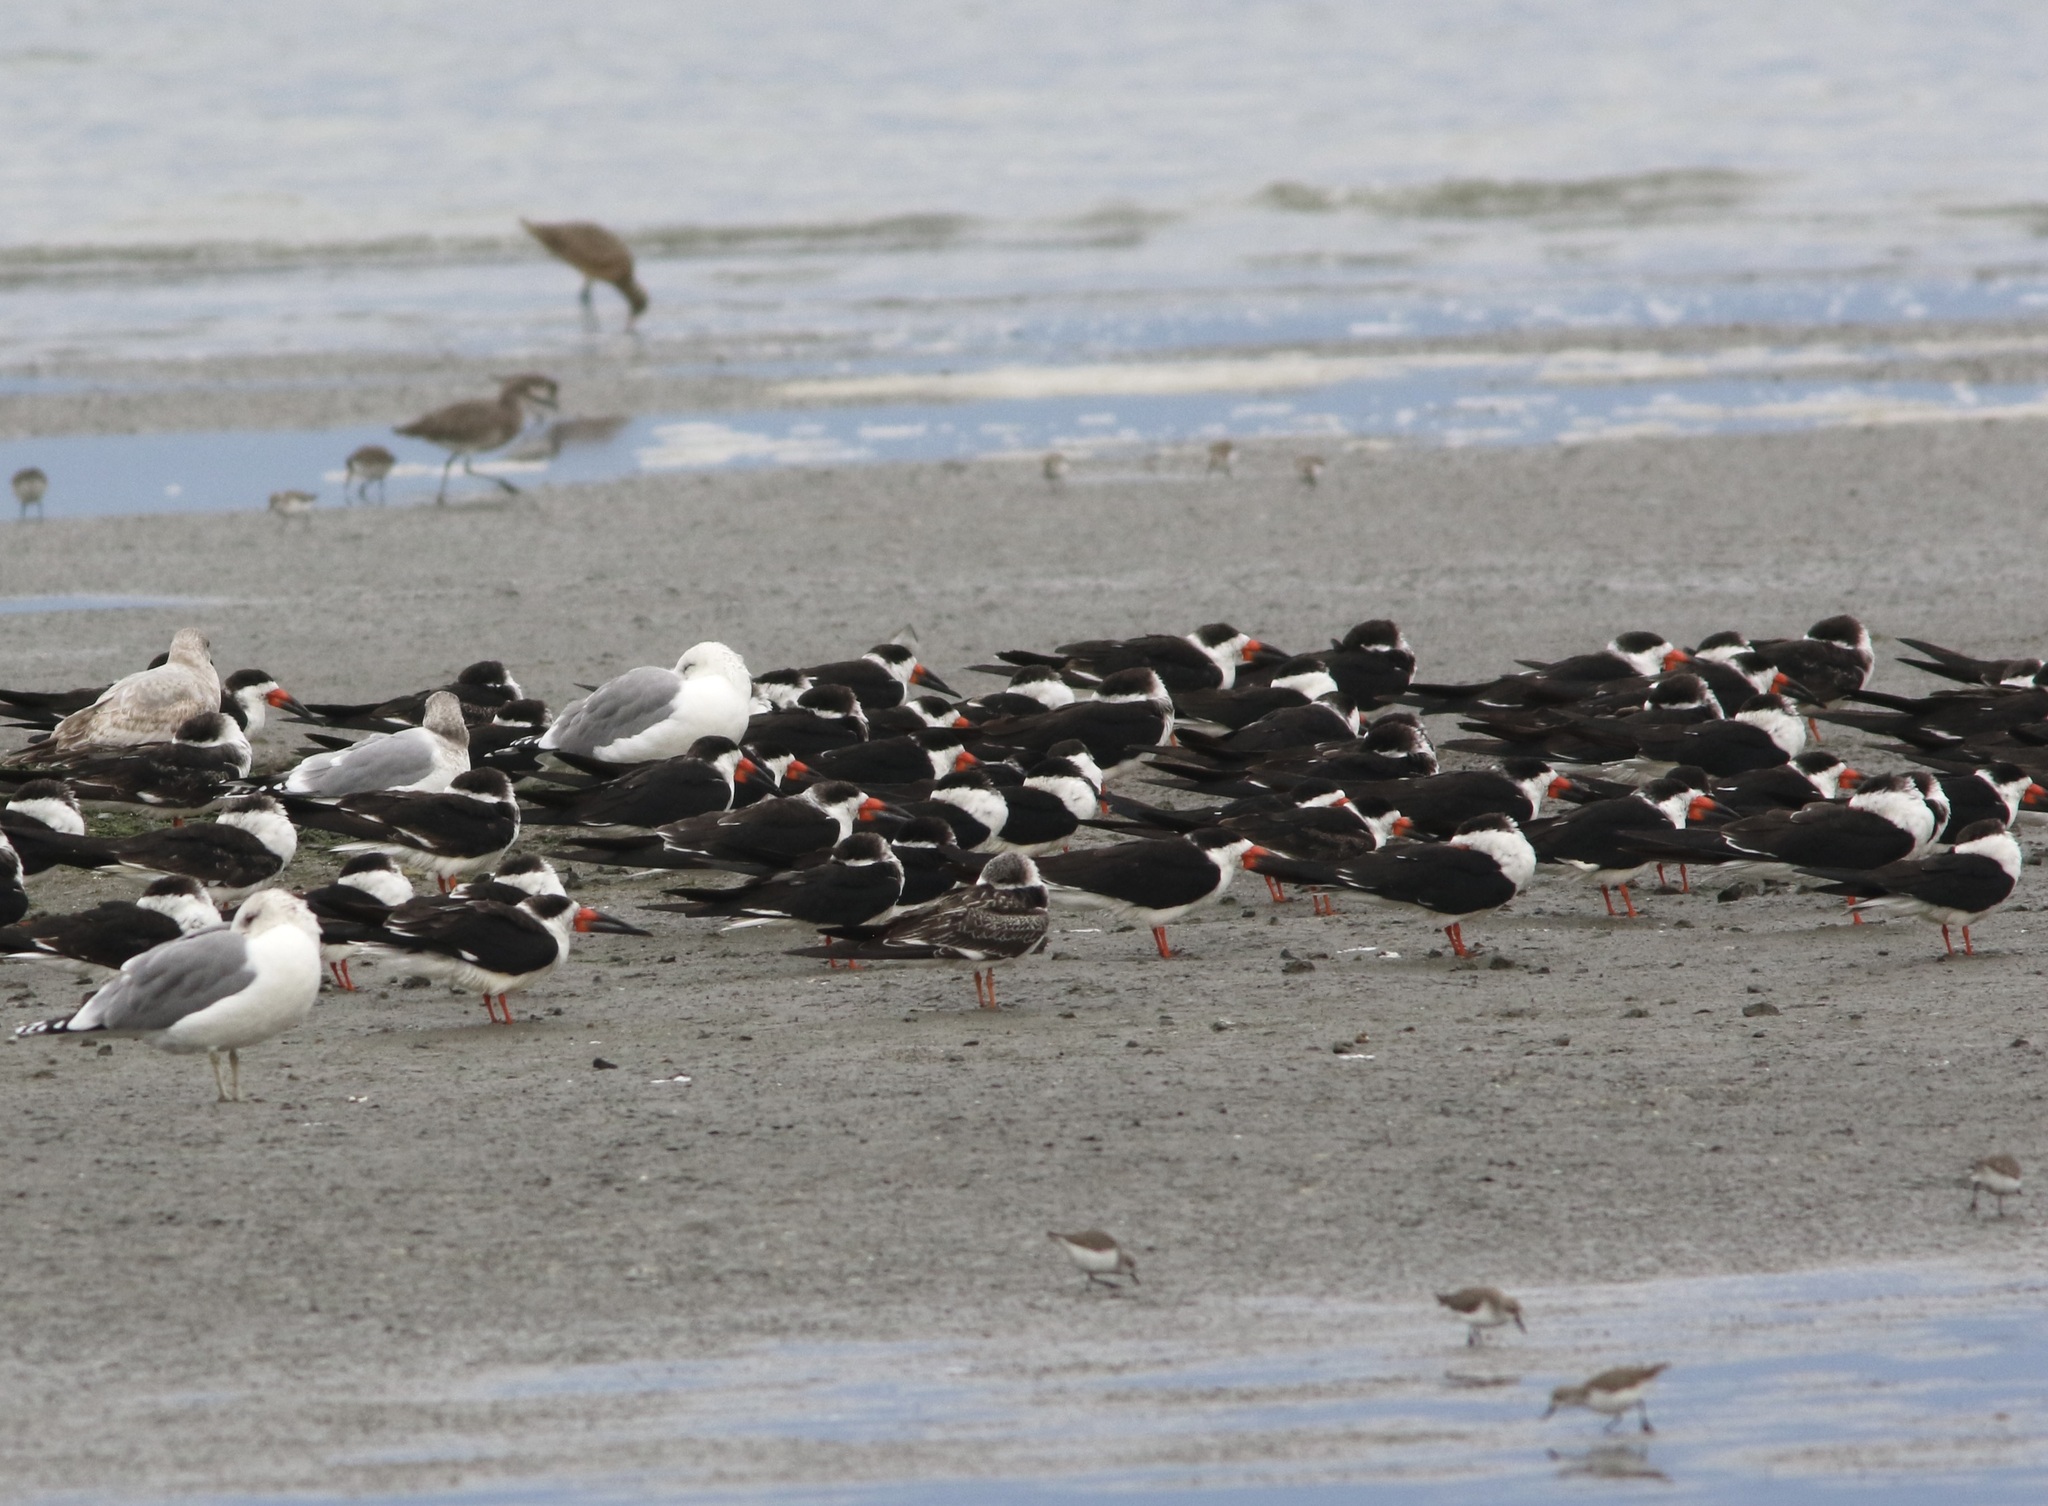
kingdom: Animalia
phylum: Chordata
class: Aves
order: Charadriiformes
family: Laridae
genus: Rynchops
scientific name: Rynchops niger
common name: Black skimmer
